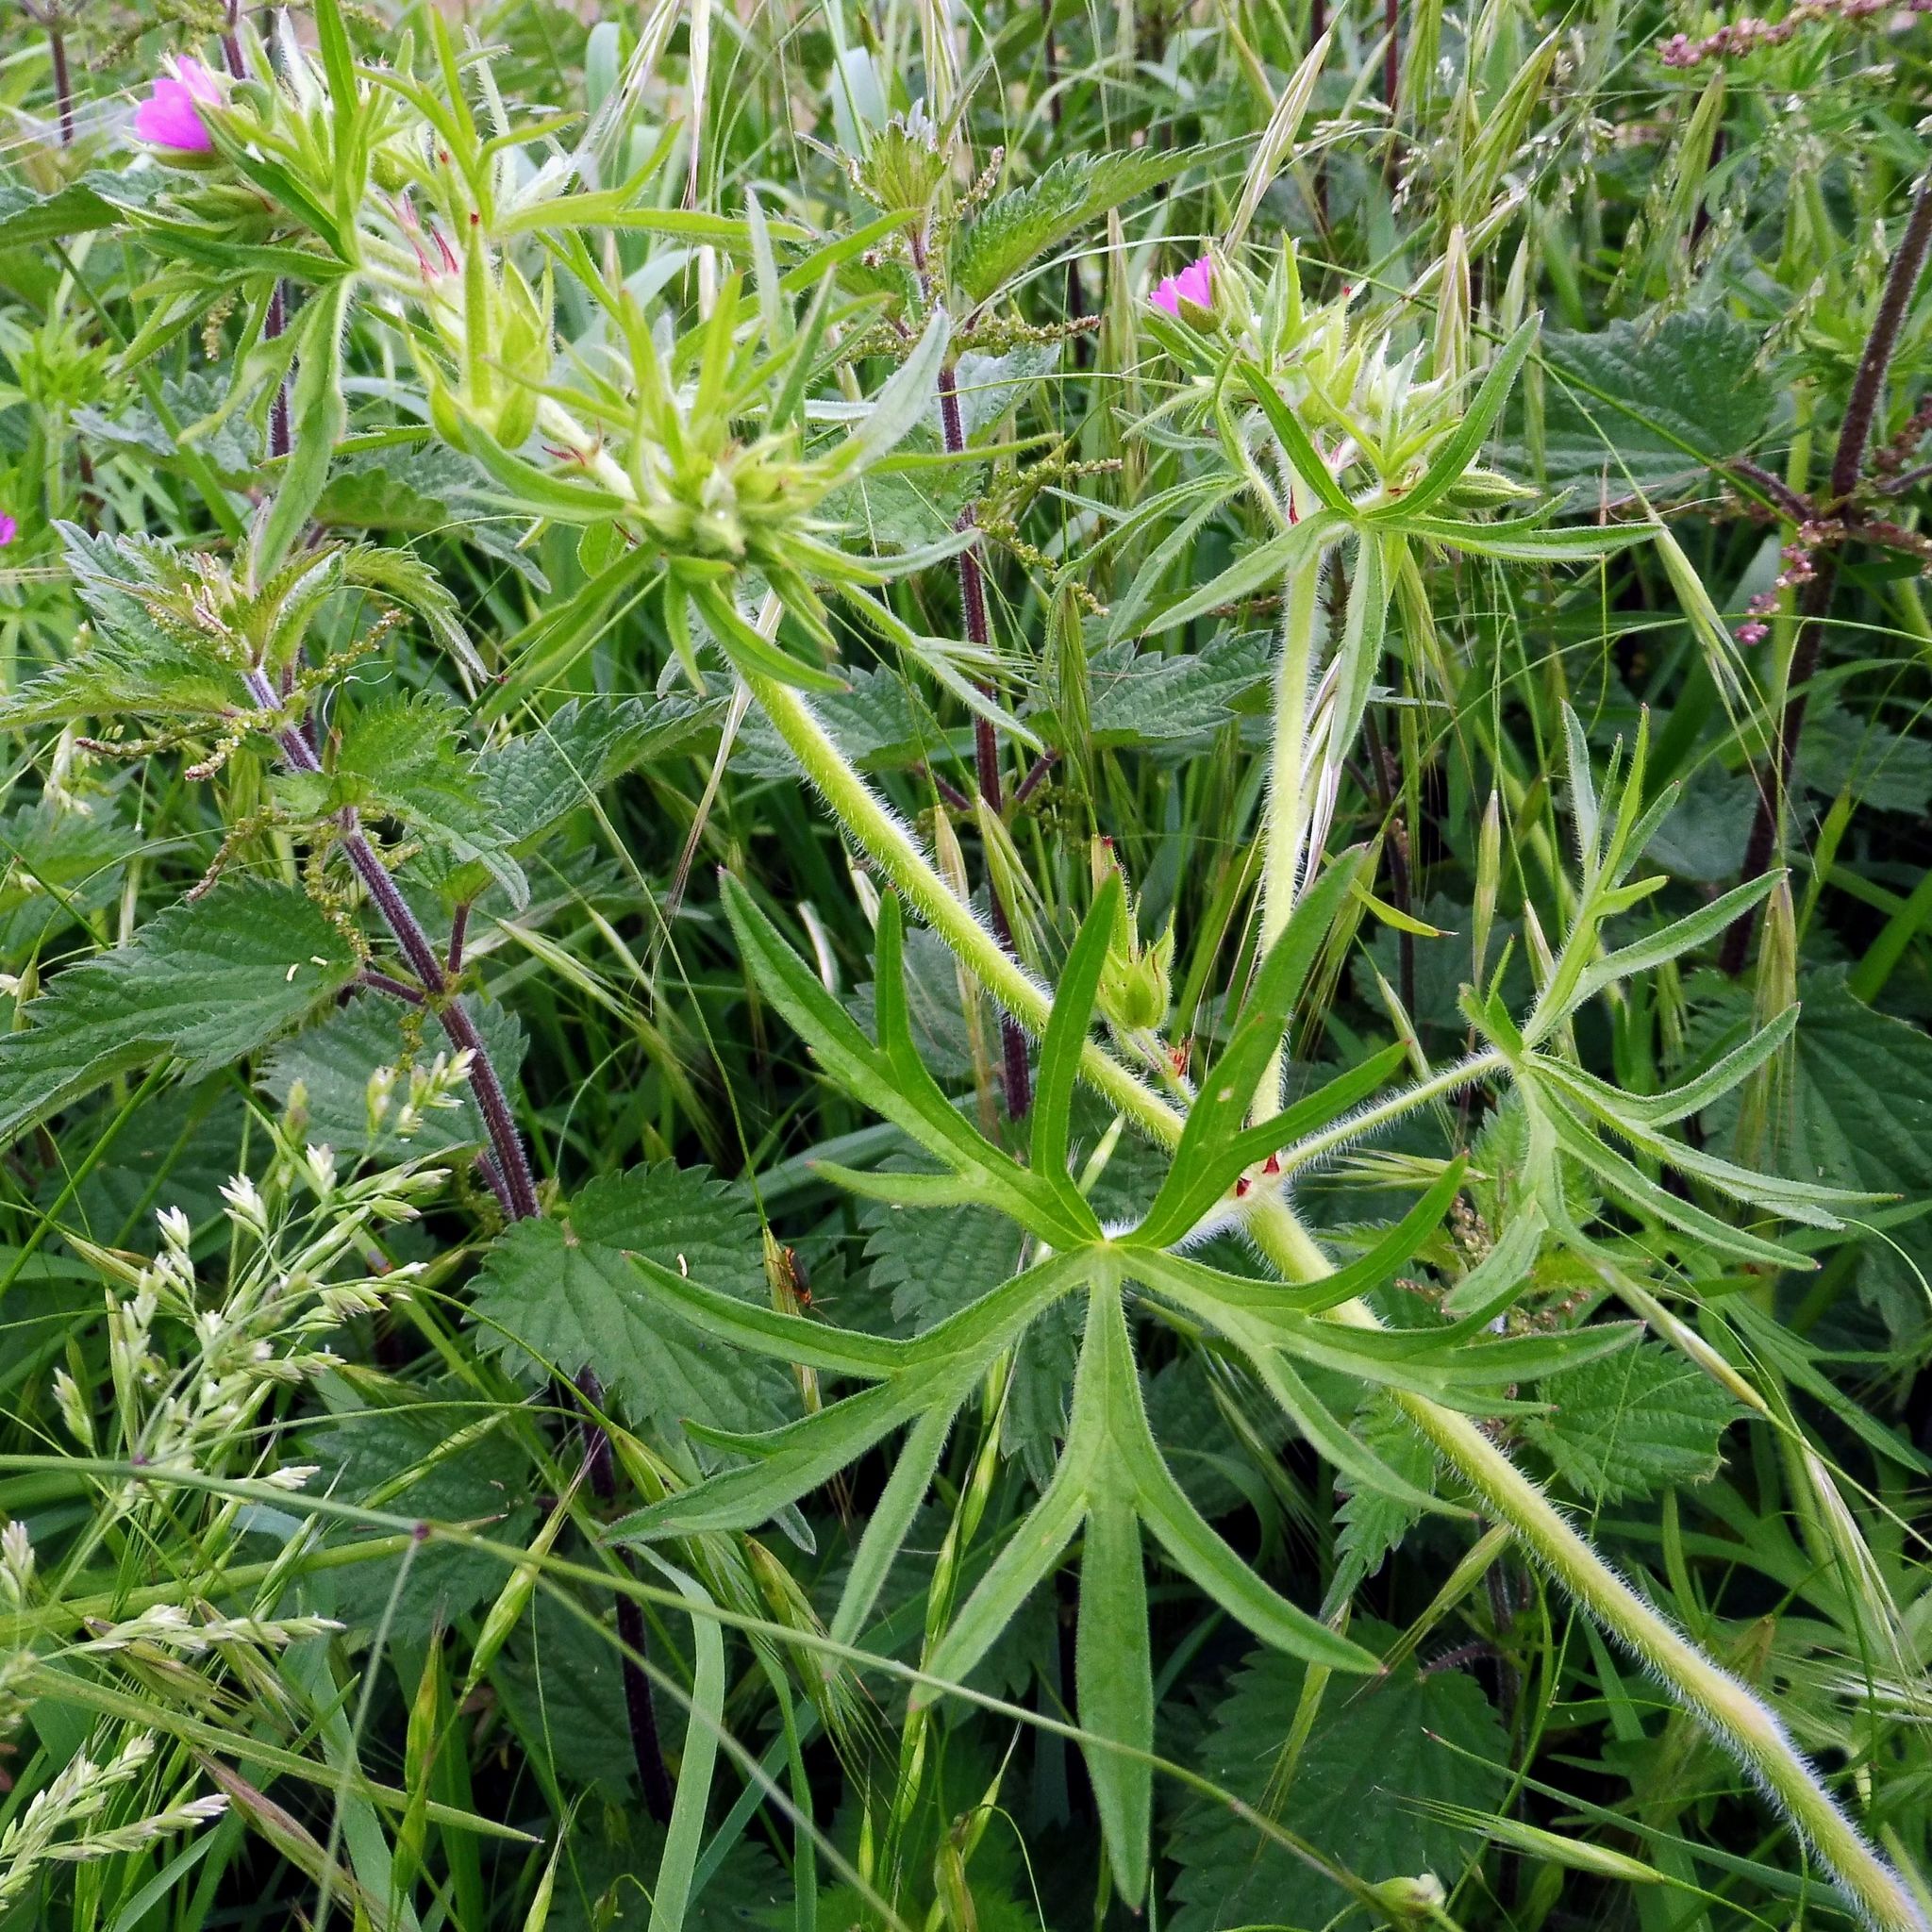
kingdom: Plantae
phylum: Tracheophyta
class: Magnoliopsida
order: Geraniales
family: Geraniaceae
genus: Geranium
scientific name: Geranium dissectum
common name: Cut-leaved crane's-bill
